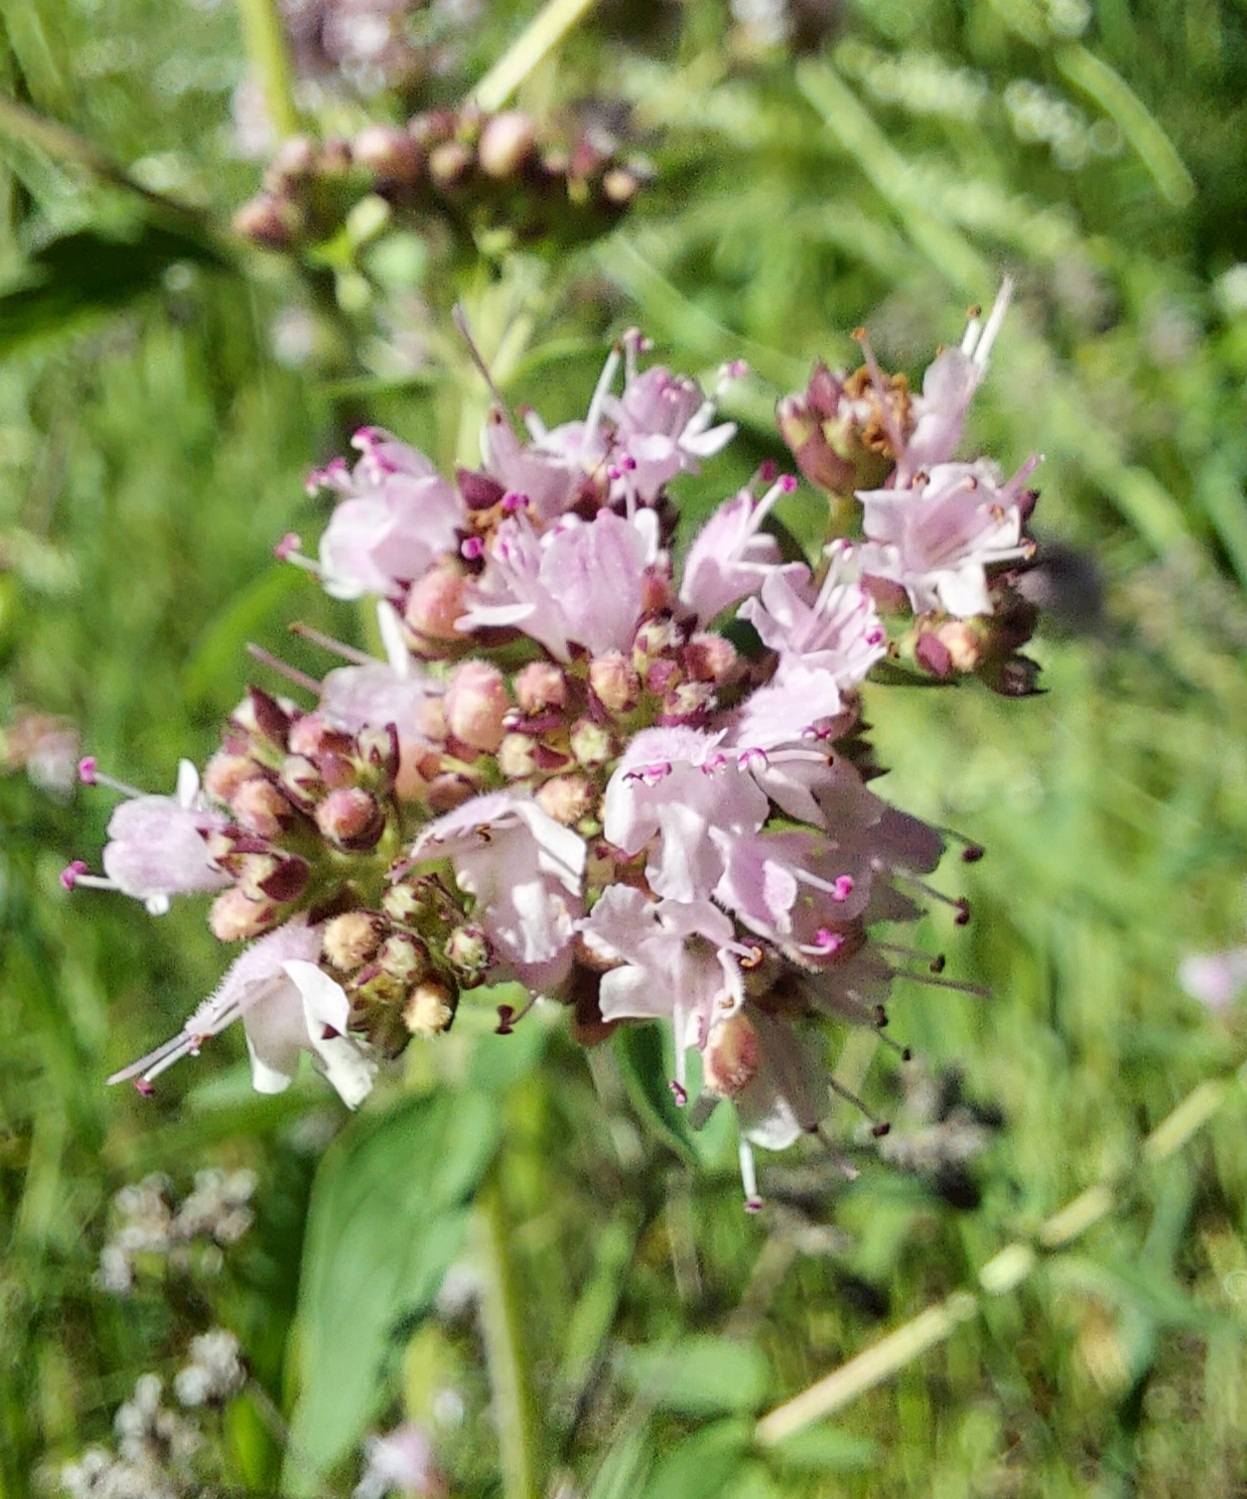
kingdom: Plantae
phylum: Tracheophyta
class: Magnoliopsida
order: Lamiales
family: Lamiaceae
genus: Origanum
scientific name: Origanum vulgare
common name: Wild marjoram
